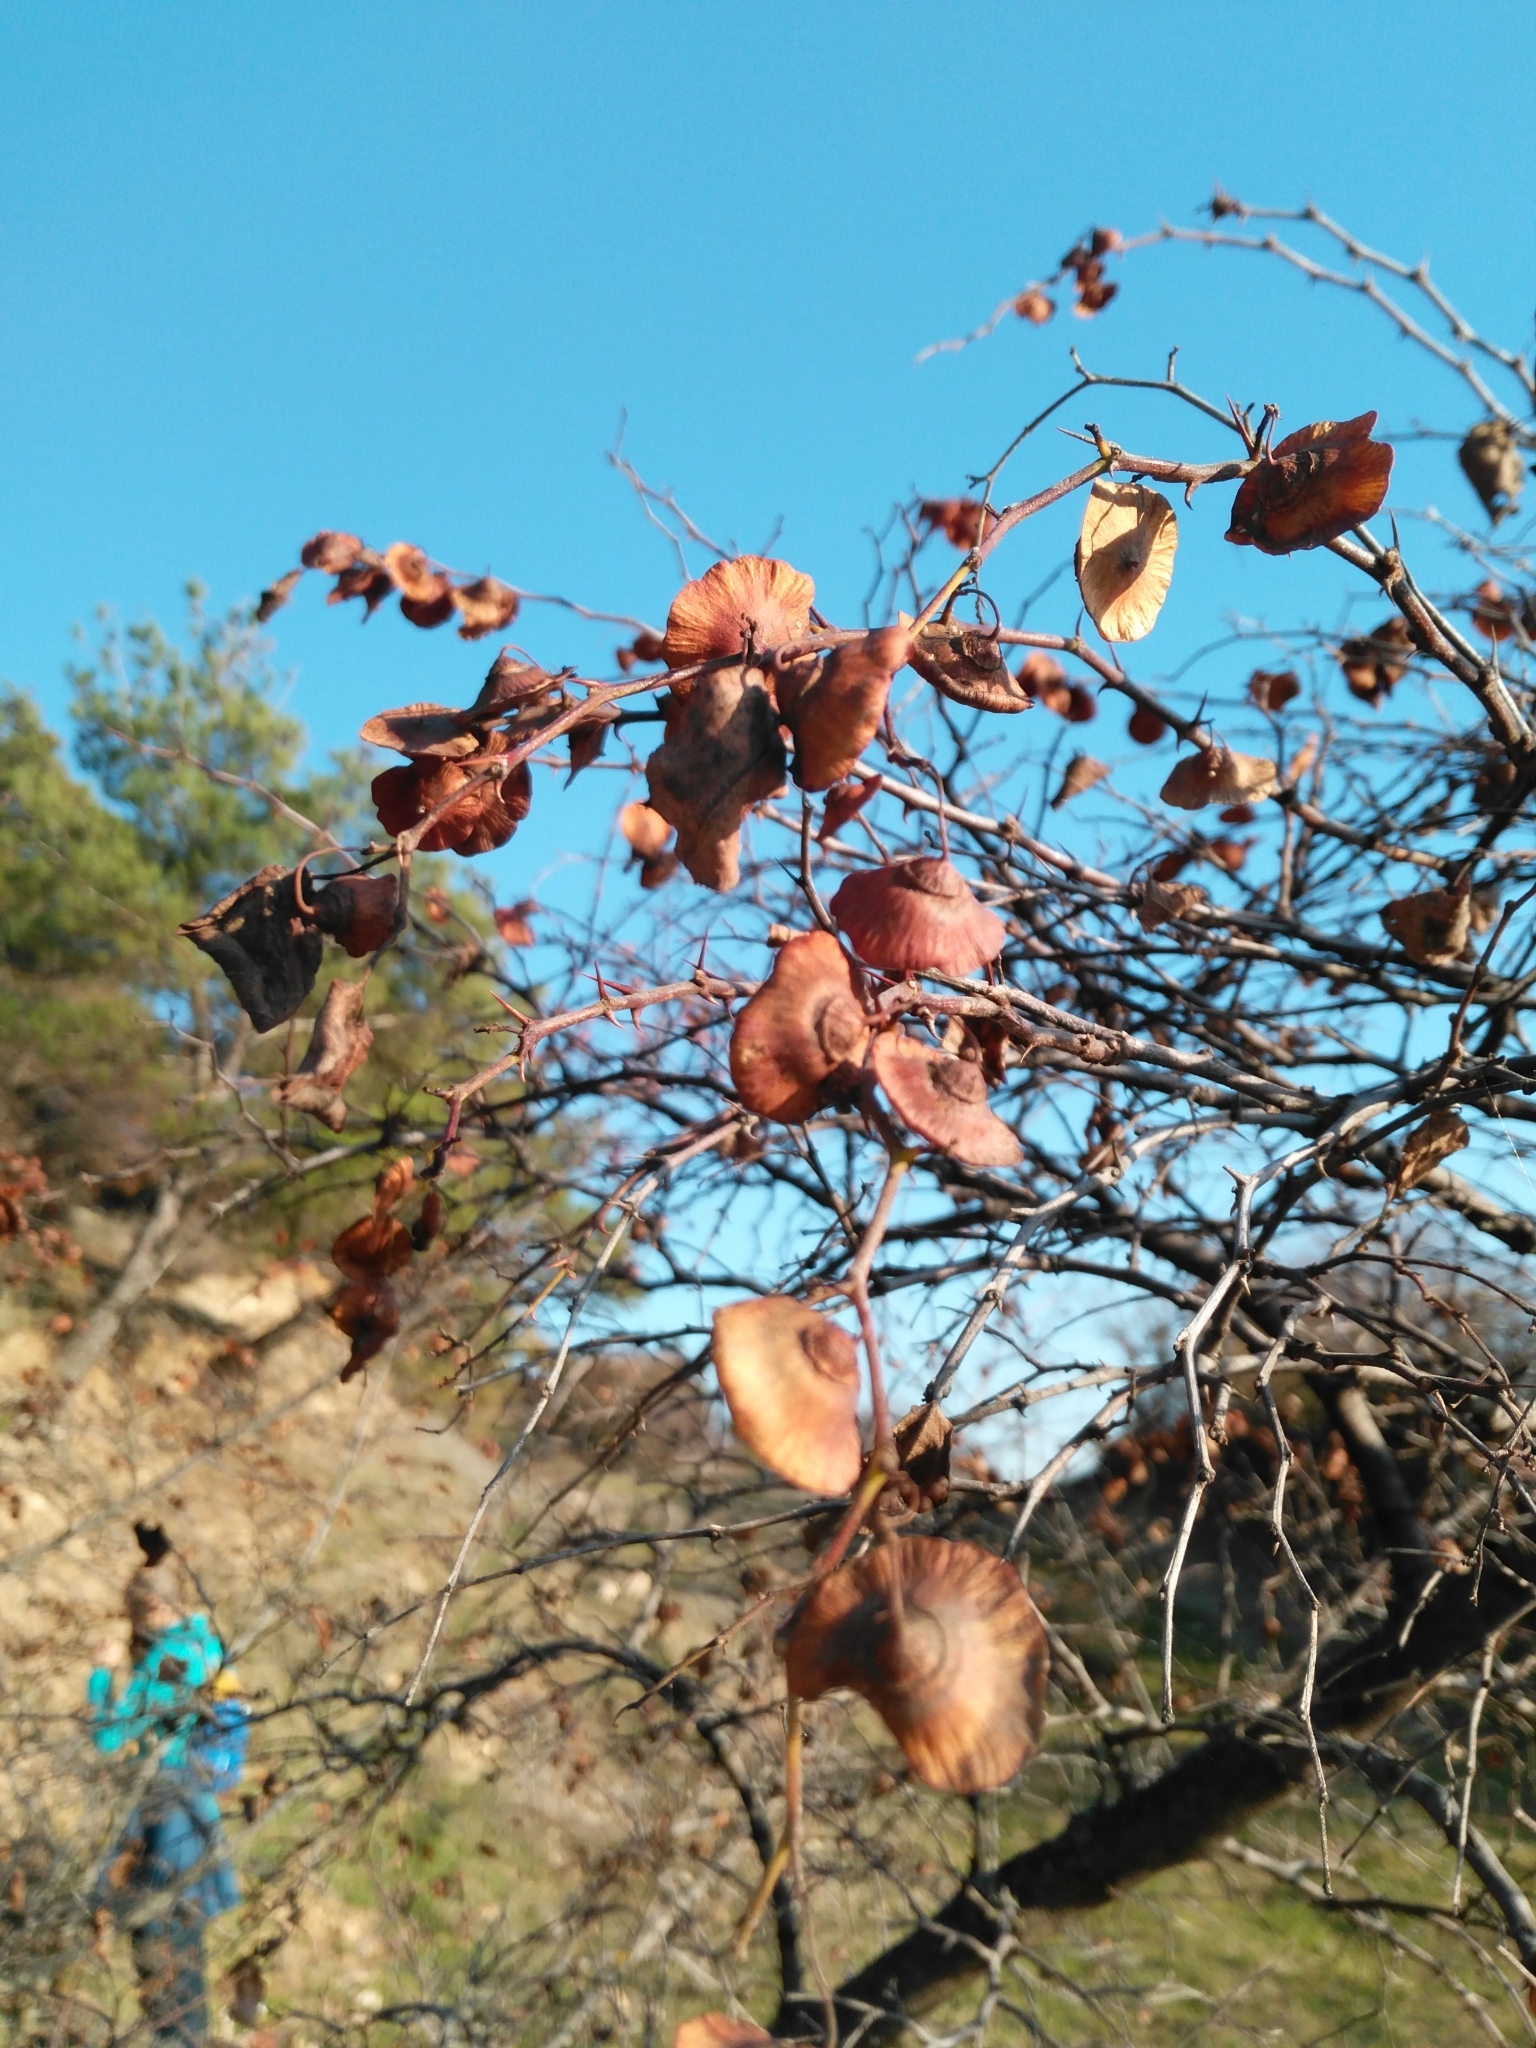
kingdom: Plantae
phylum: Tracheophyta
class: Magnoliopsida
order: Rosales
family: Rhamnaceae
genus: Paliurus
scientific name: Paliurus spina-christi
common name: Jeruselem thorn
